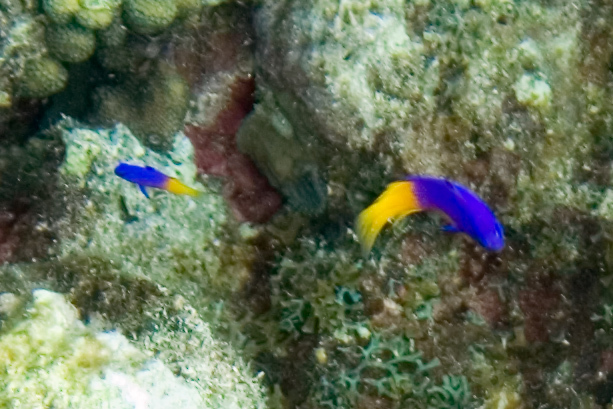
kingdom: Animalia
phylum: Chordata
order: Perciformes
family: Grammatidae
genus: Gramma
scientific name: Gramma loreto
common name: Fairy basslet
